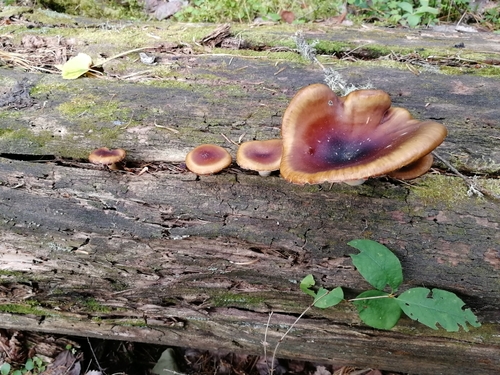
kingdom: Fungi
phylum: Basidiomycota
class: Agaricomycetes
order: Polyporales
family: Polyporaceae
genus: Picipes
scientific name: Picipes badius
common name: Bay polypore
